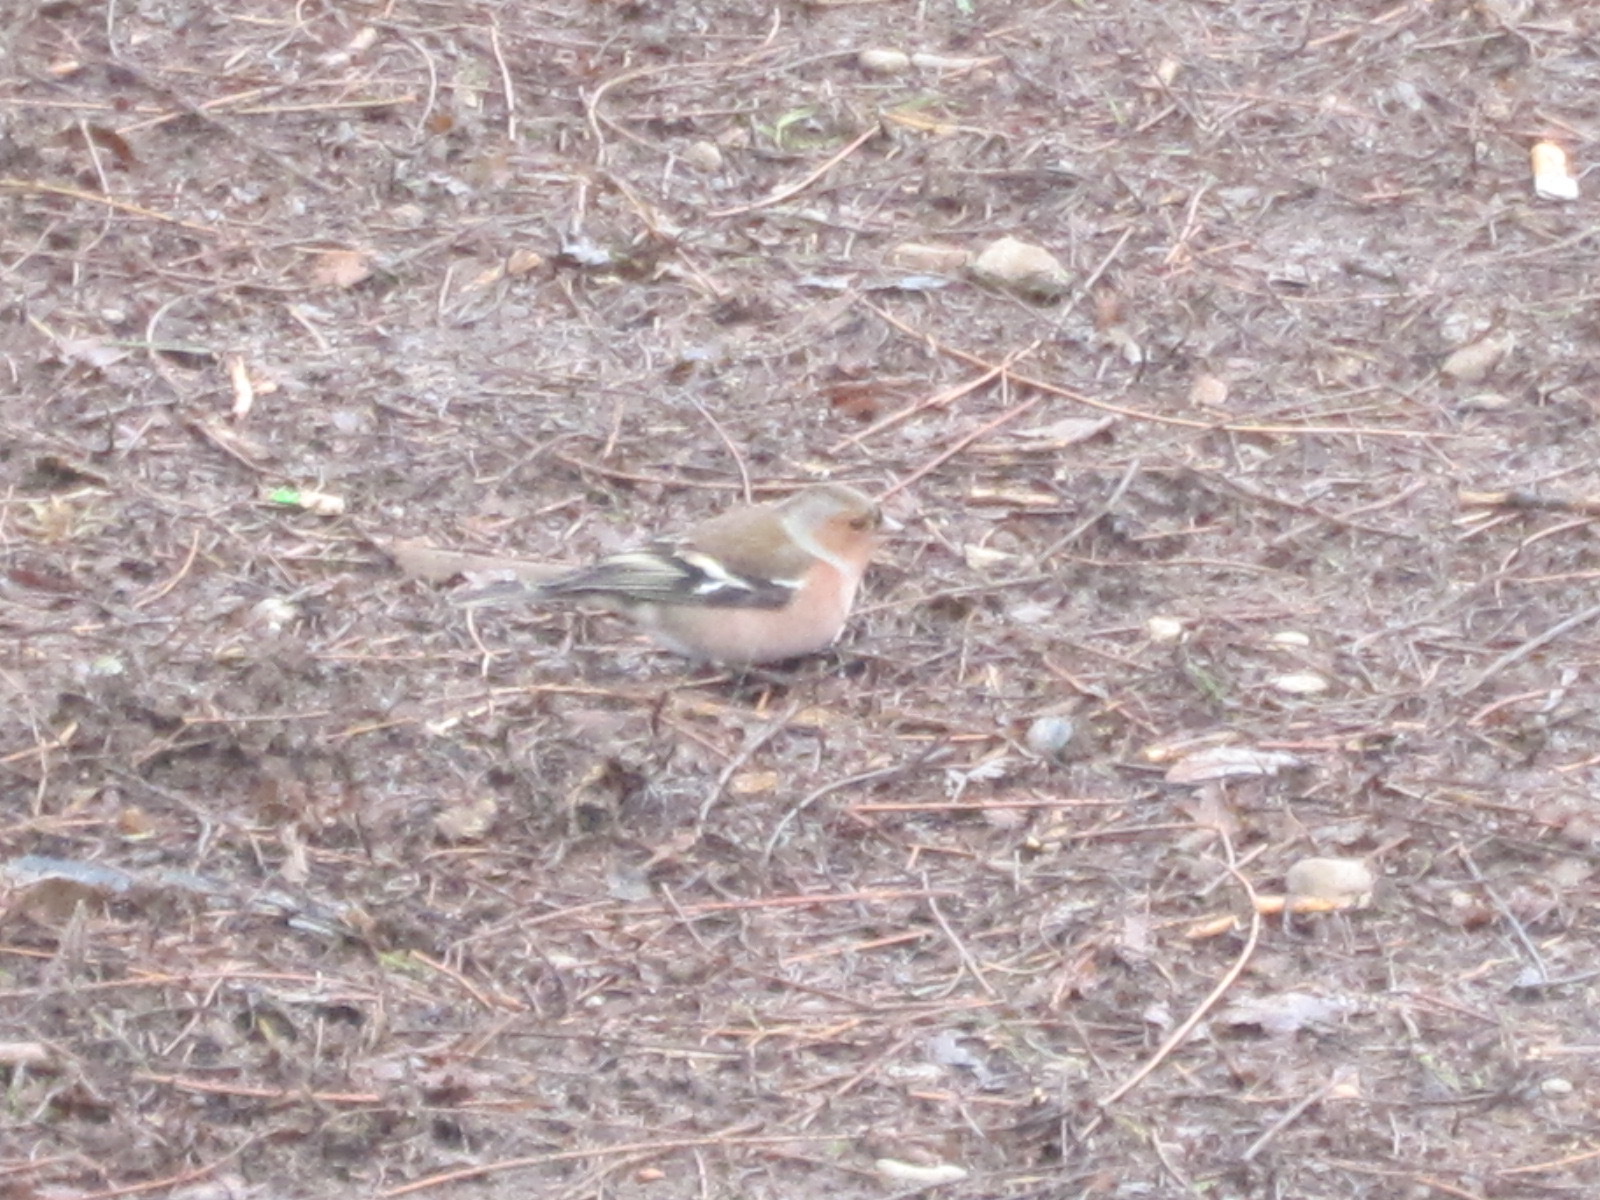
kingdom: Animalia
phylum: Chordata
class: Aves
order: Passeriformes
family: Fringillidae
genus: Fringilla
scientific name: Fringilla coelebs
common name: Common chaffinch
